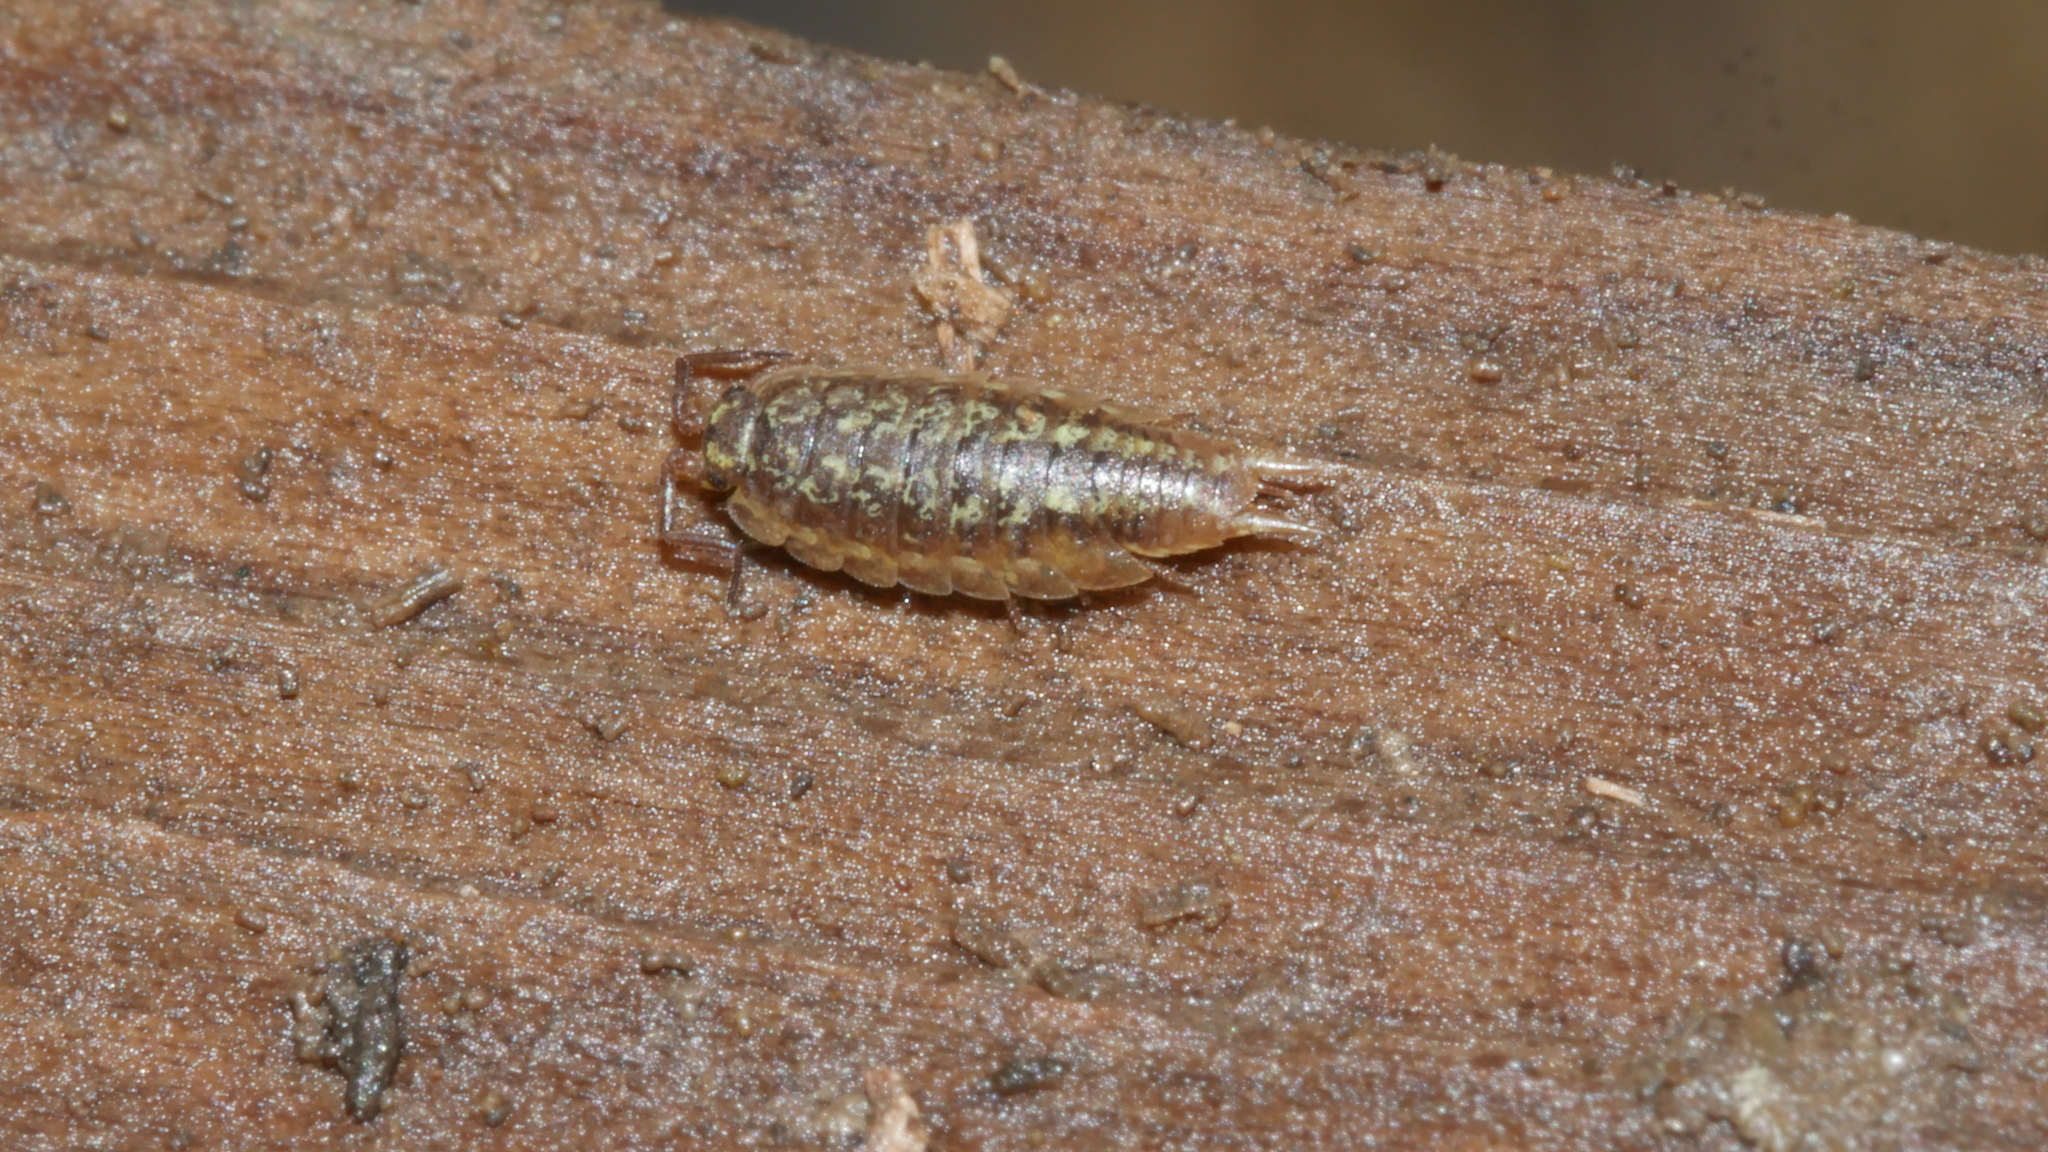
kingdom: Animalia
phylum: Arthropoda
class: Malacostraca
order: Isopoda
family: Halophilosciidae
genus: Littorophiloscia
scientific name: Littorophiloscia vittata
